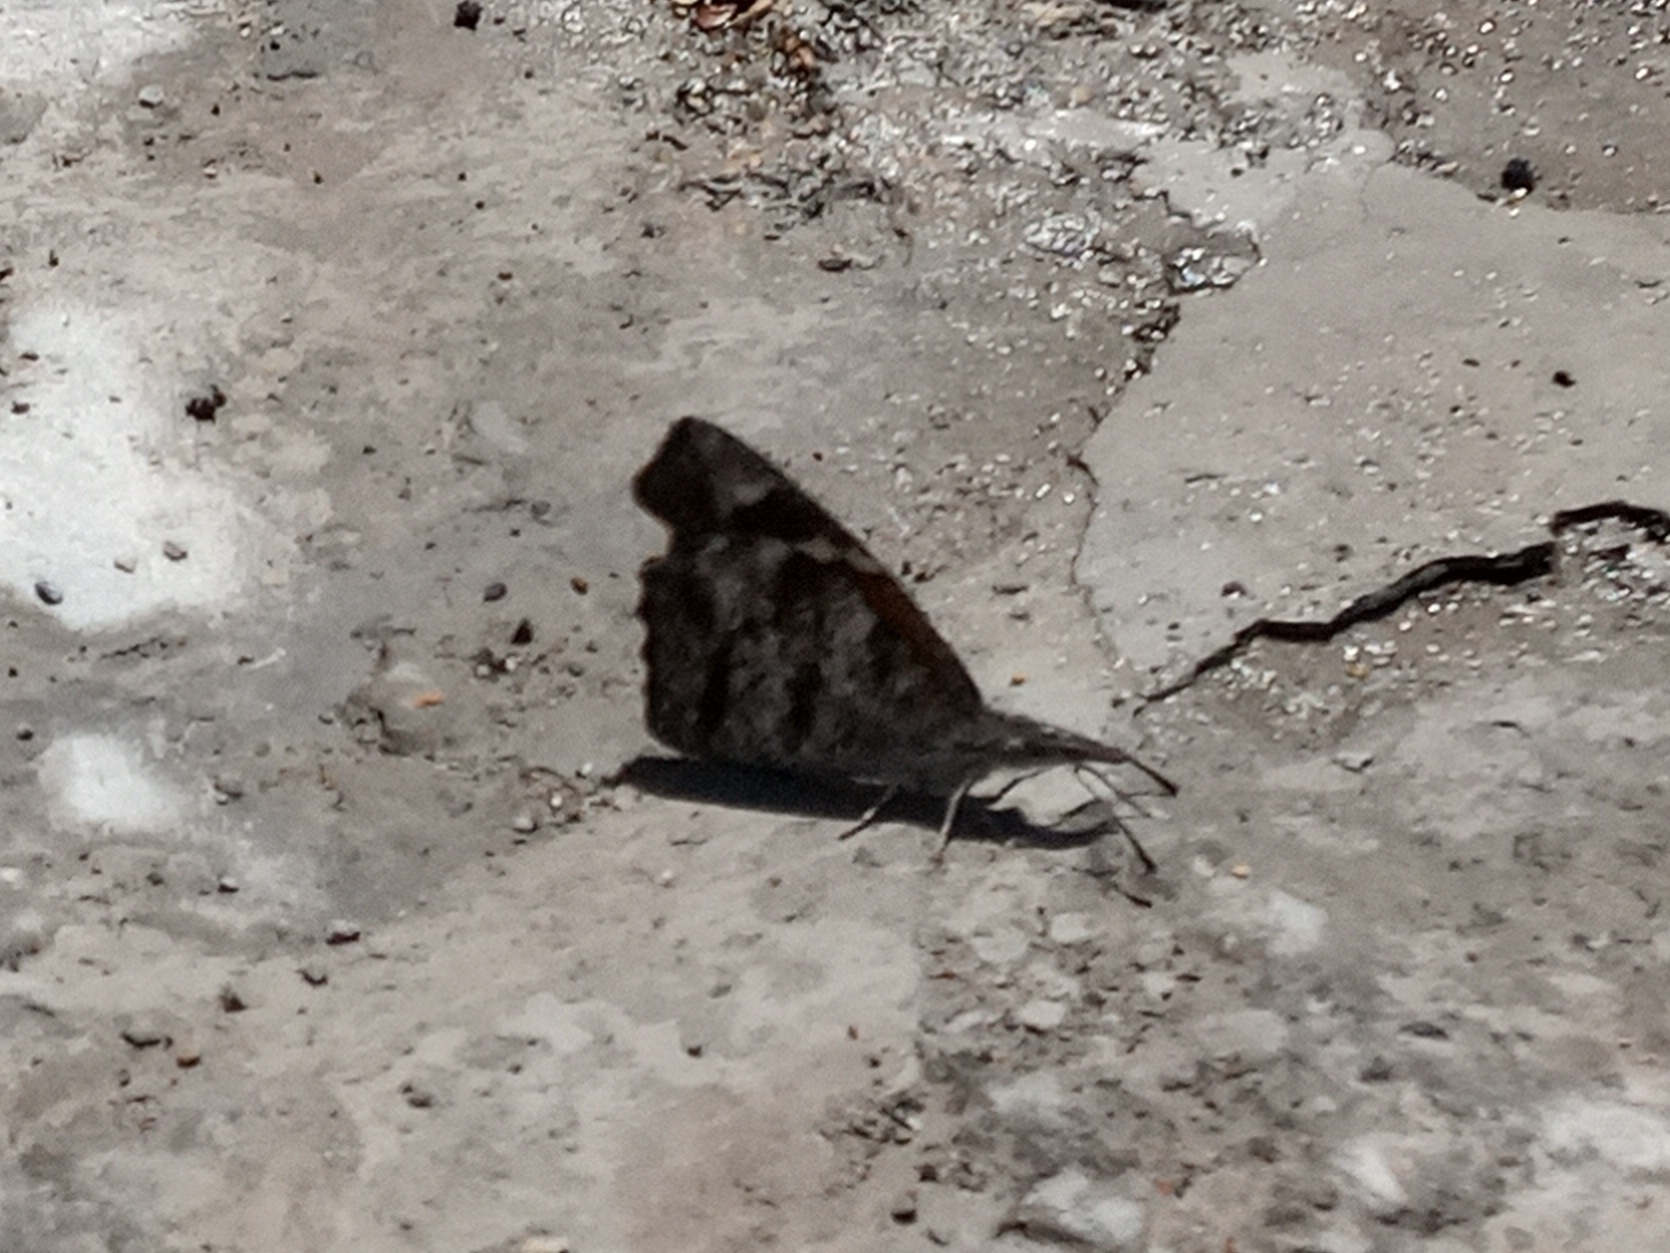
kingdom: Animalia
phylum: Arthropoda
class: Insecta
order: Lepidoptera
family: Nymphalidae
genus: Libytheana
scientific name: Libytheana carinenta
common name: American snout
